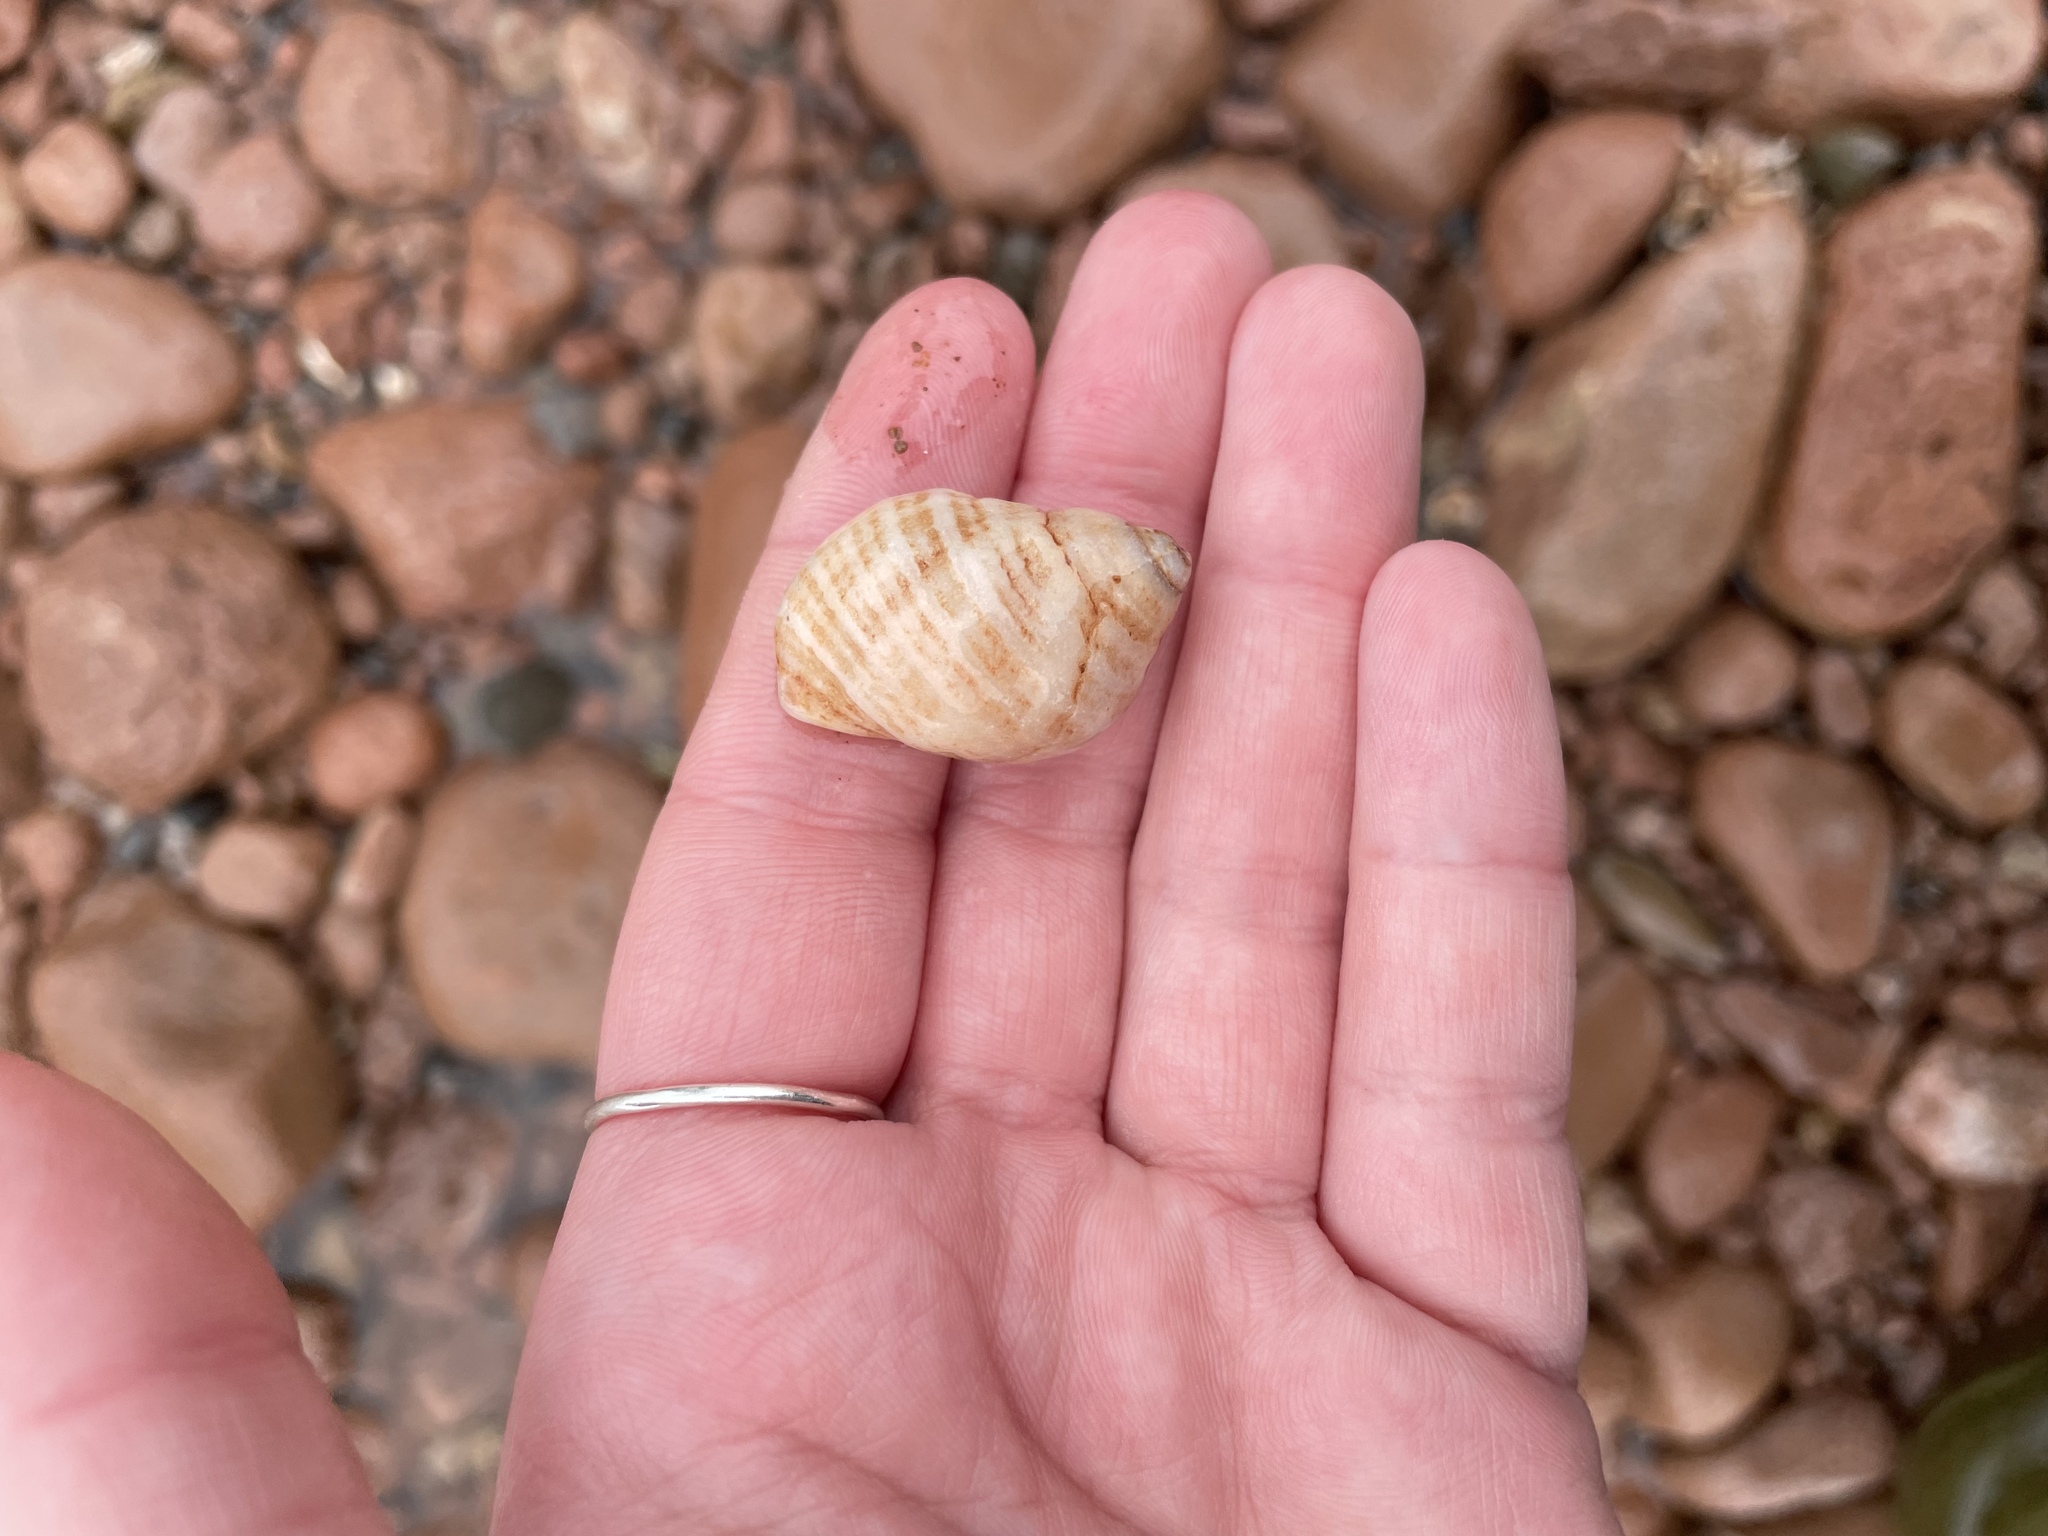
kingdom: Animalia
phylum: Mollusca
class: Gastropoda
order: Neogastropoda
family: Muricidae
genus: Nucella
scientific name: Nucella lapillus
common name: Dog whelk
